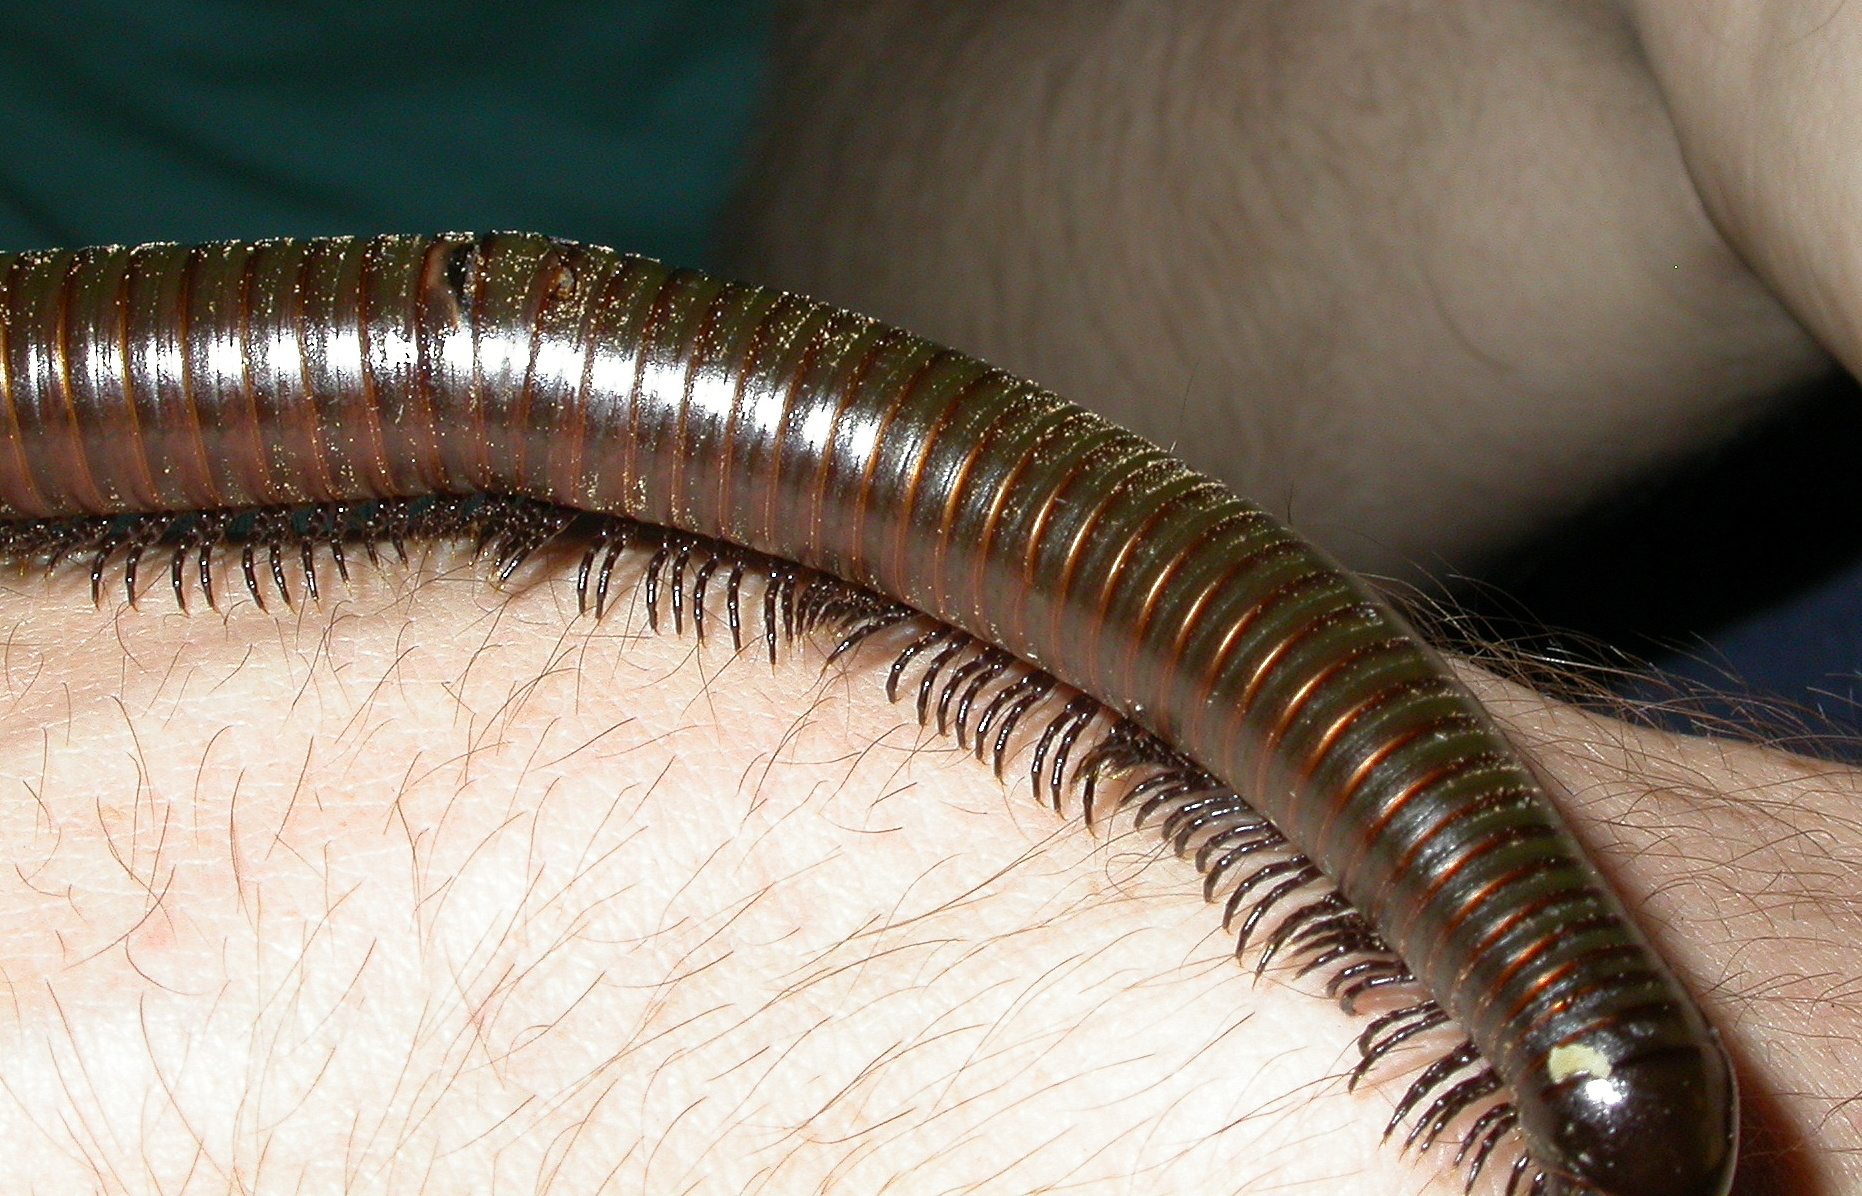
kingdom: Animalia
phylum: Arthropoda
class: Diplopoda
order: Spirostreptida
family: Spirostreptidae
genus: Orthoporus
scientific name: Orthoporus ornatus
